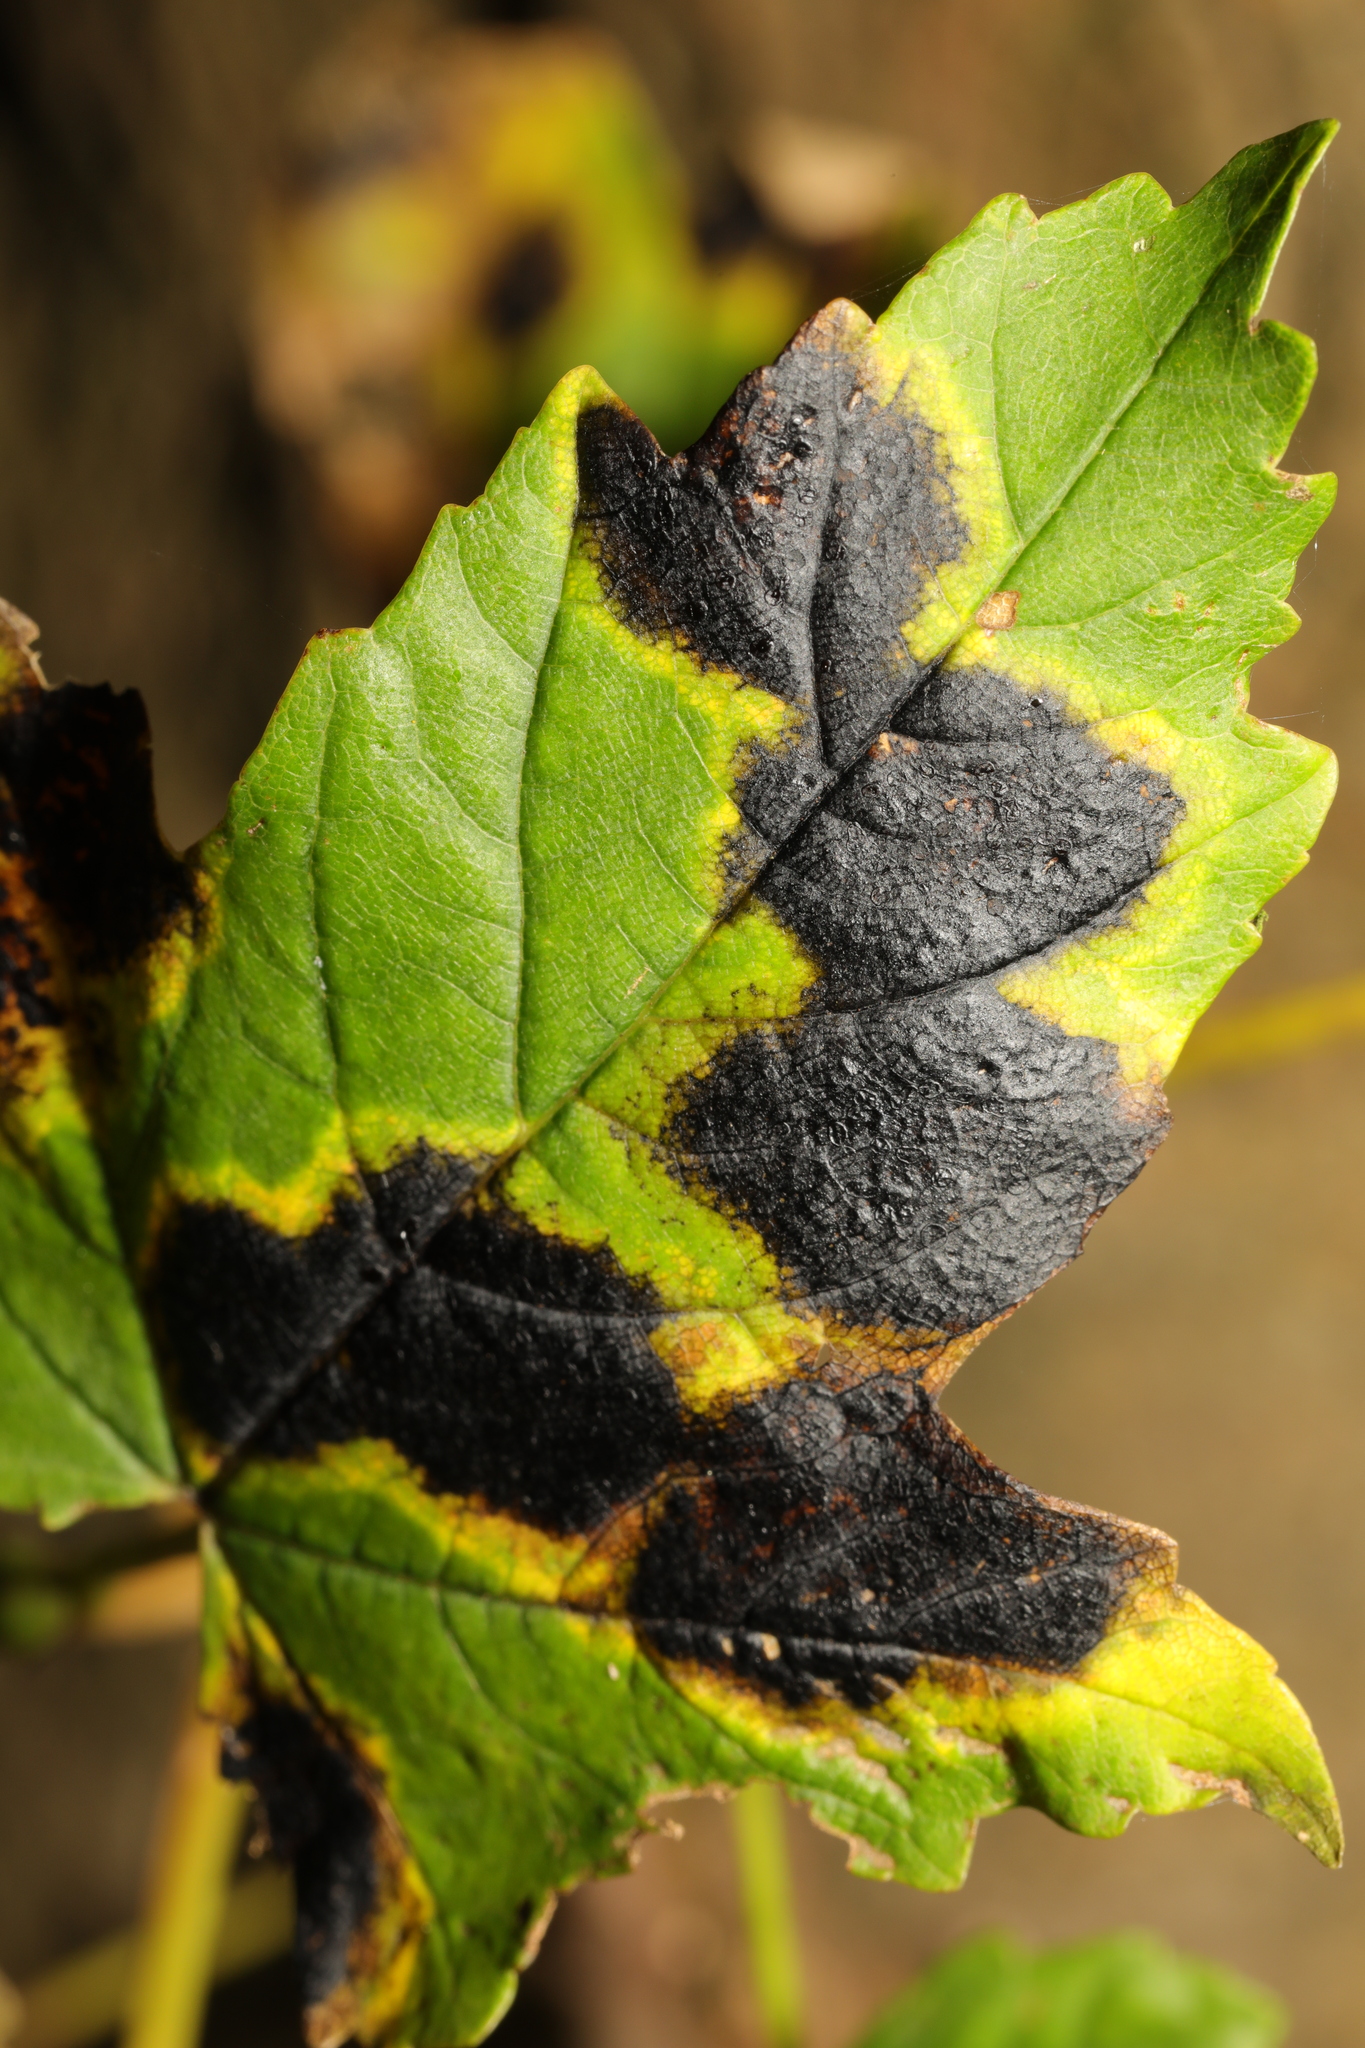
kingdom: Fungi
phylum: Ascomycota
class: Leotiomycetes
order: Rhytismatales
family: Rhytismataceae
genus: Rhytisma
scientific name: Rhytisma acerinum
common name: European tar spot
